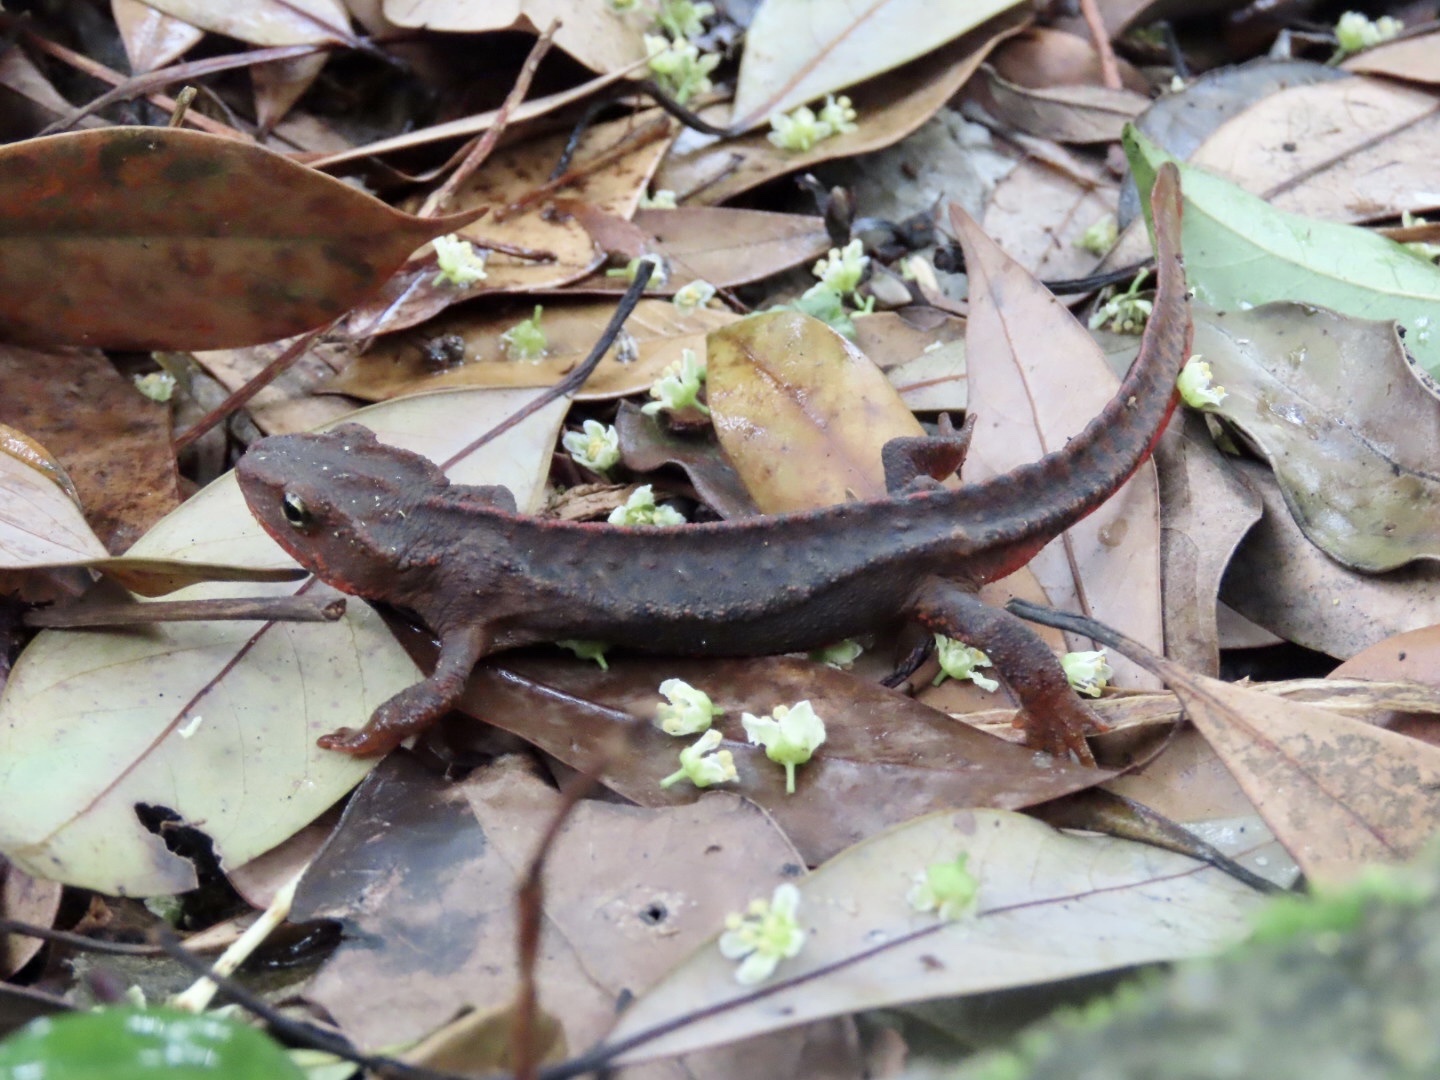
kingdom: Animalia
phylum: Chordata
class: Amphibia
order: Caudata
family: Salamandridae
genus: Paramesotriton
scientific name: Paramesotriton hongkongensis
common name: Hong kong warty newt
